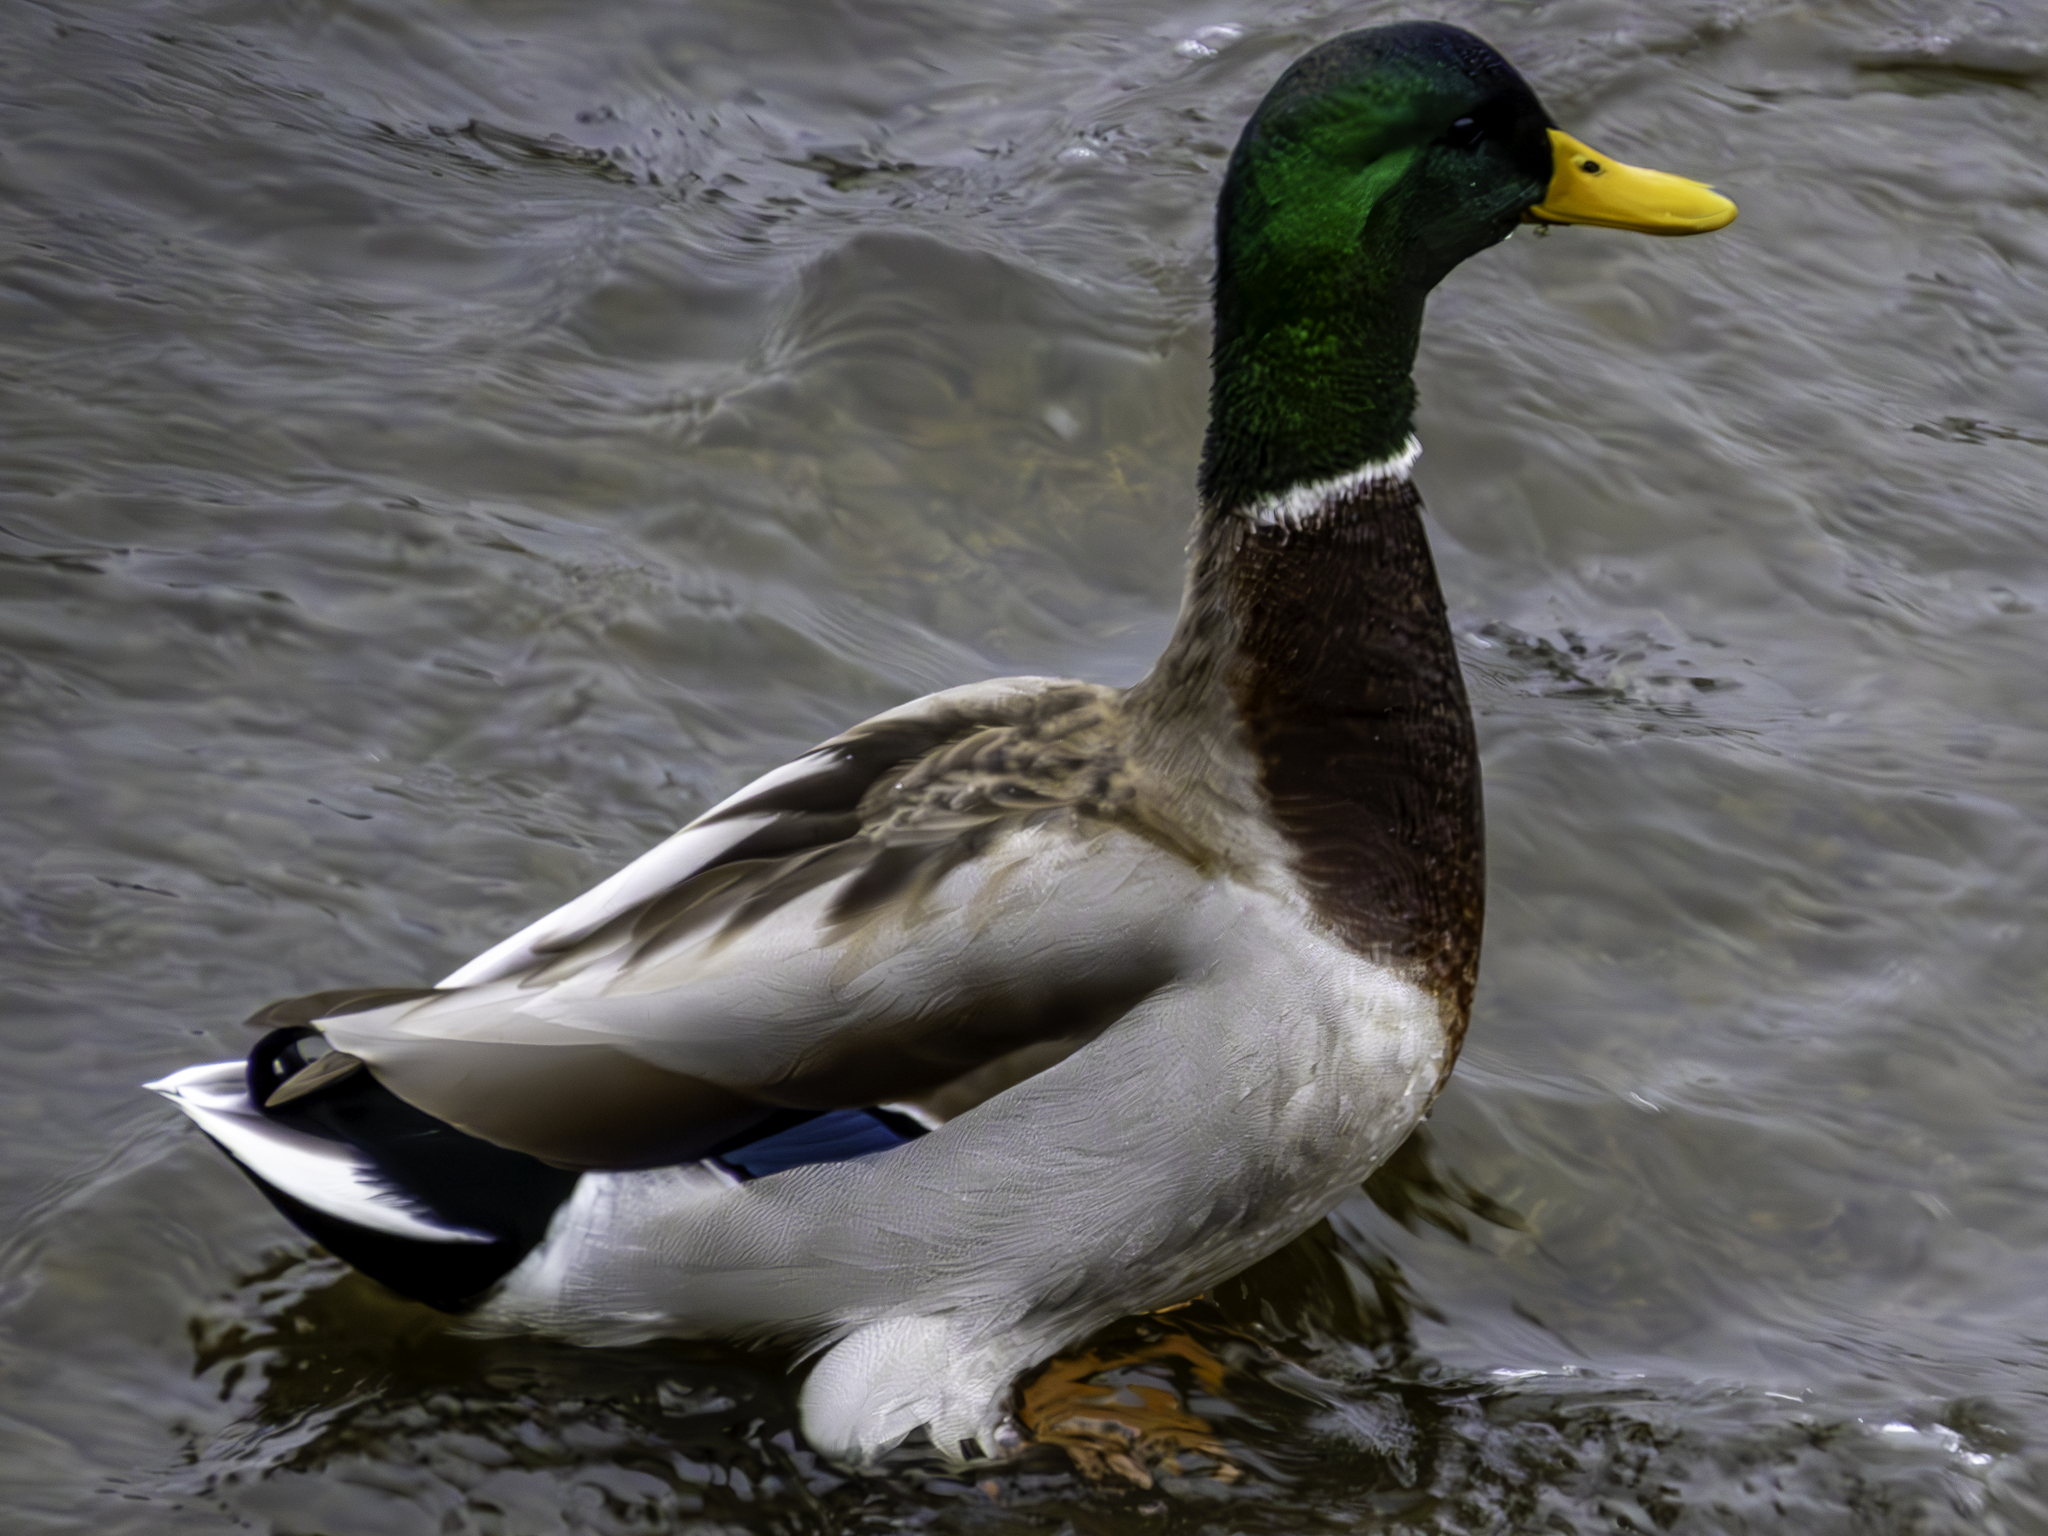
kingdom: Animalia
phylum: Chordata
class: Aves
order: Anseriformes
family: Anatidae
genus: Anas
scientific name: Anas platyrhynchos
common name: Mallard
